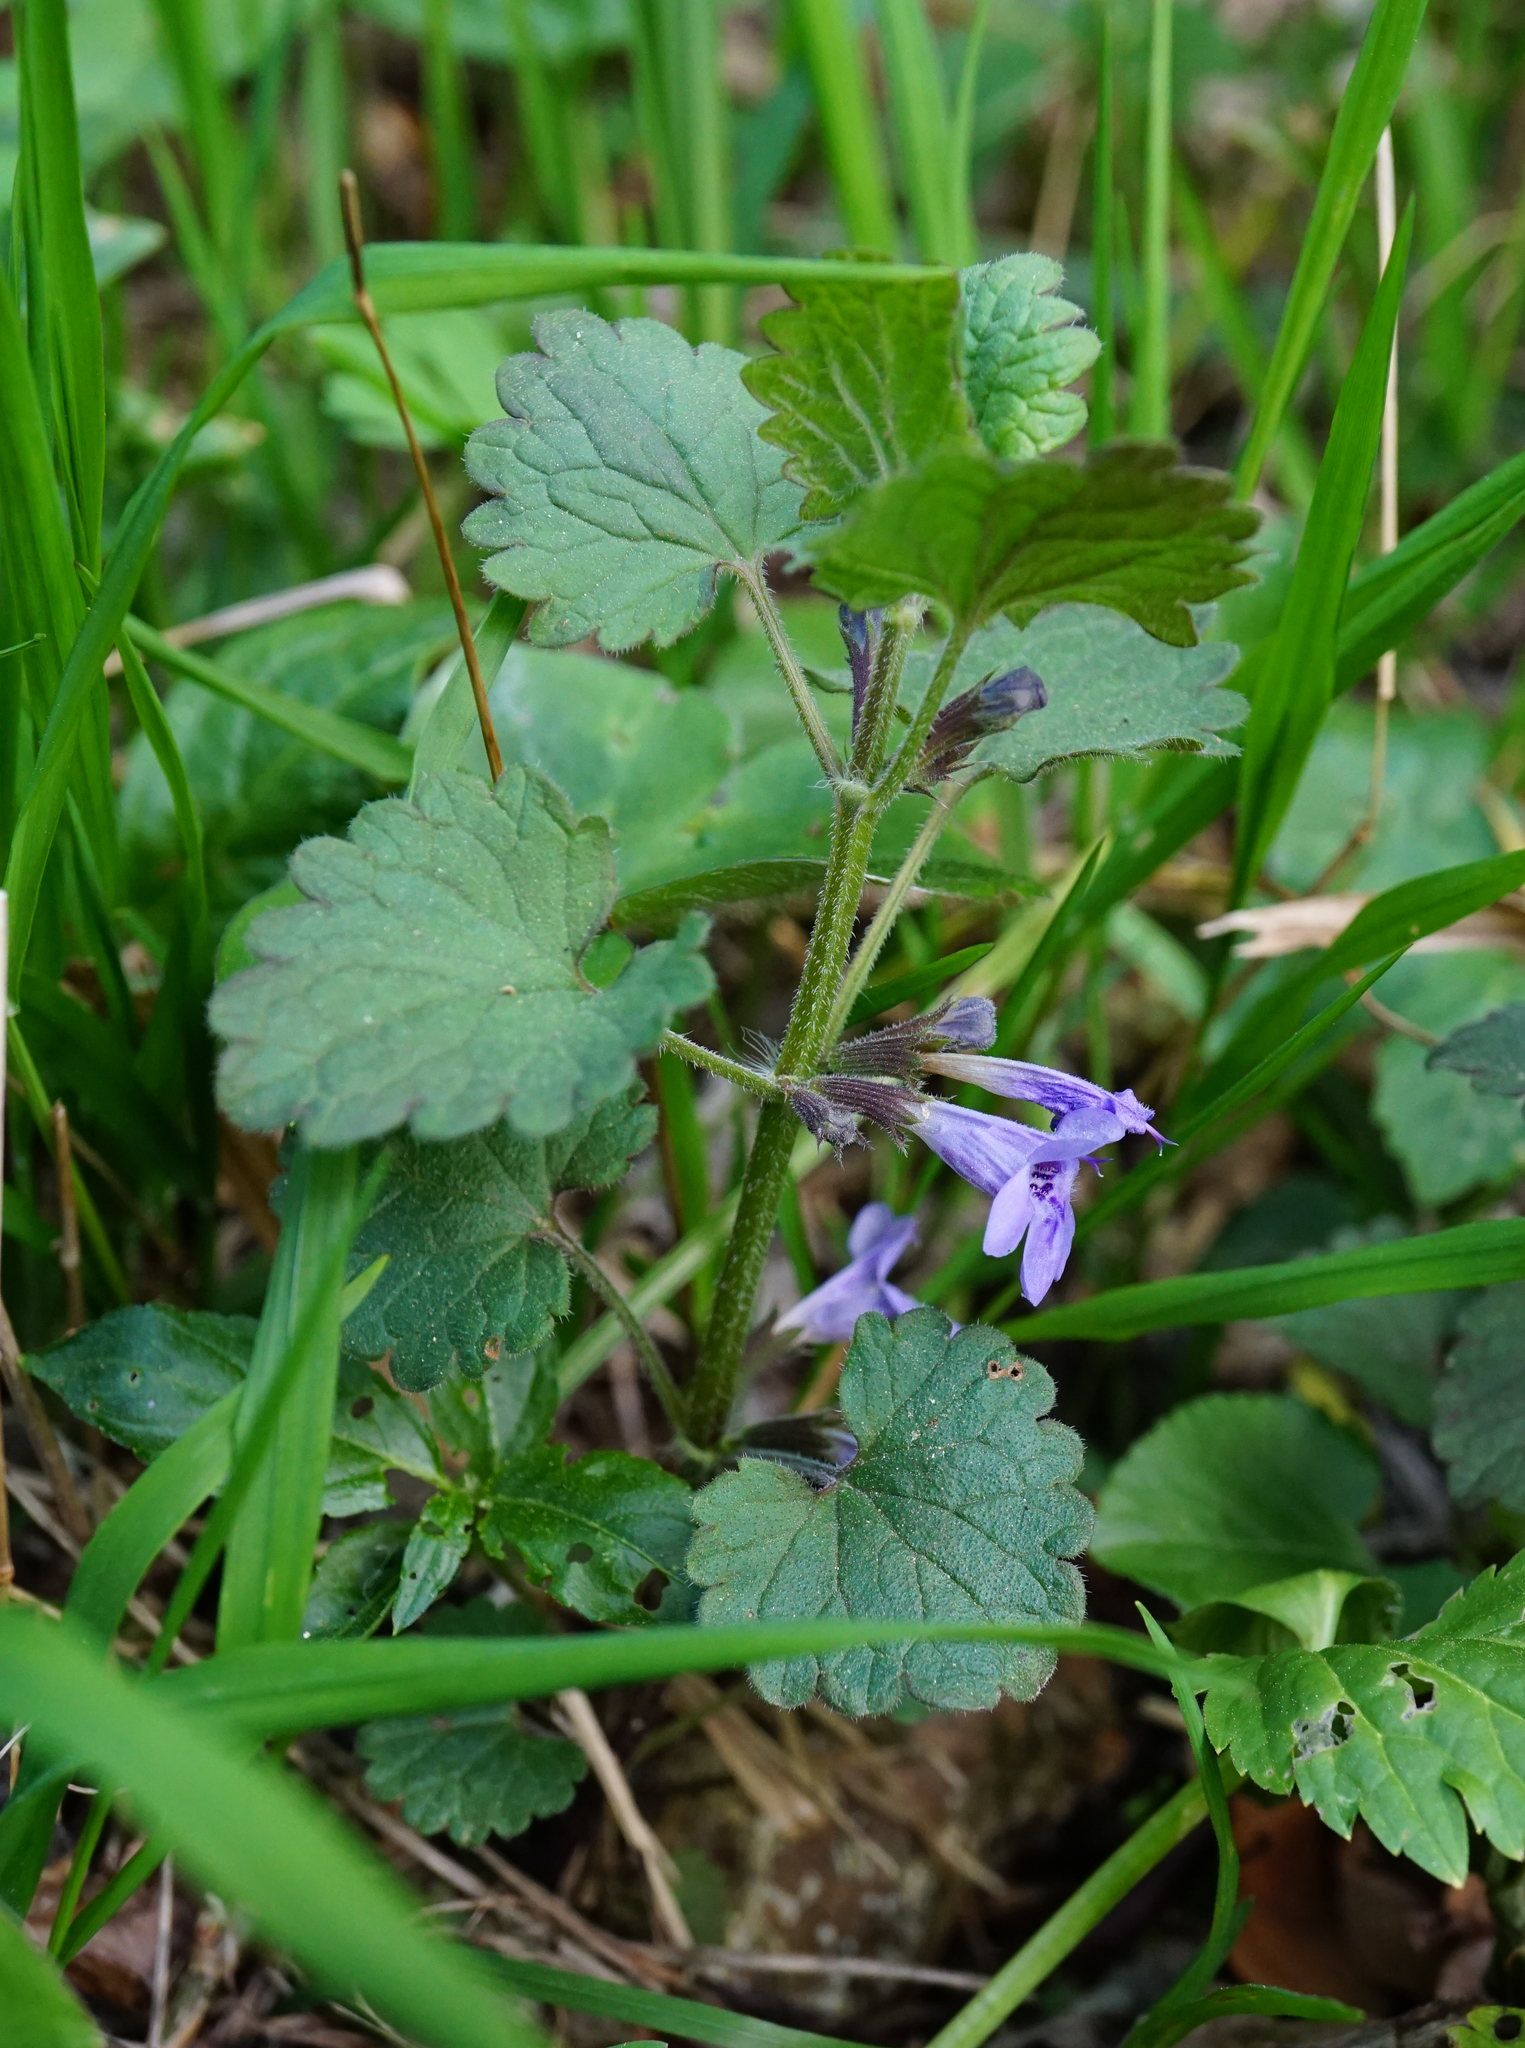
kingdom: Plantae
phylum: Tracheophyta
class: Magnoliopsida
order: Lamiales
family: Lamiaceae
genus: Glechoma
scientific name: Glechoma hederacea
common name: Ground ivy
